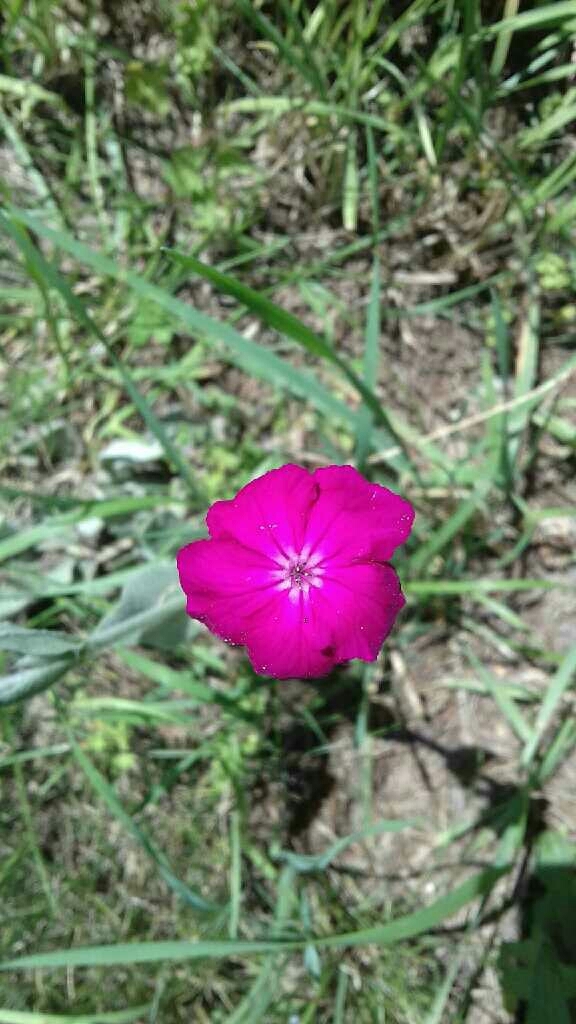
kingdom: Plantae
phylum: Tracheophyta
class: Magnoliopsida
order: Caryophyllales
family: Caryophyllaceae
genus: Silene
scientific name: Silene coronaria
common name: Rose campion
